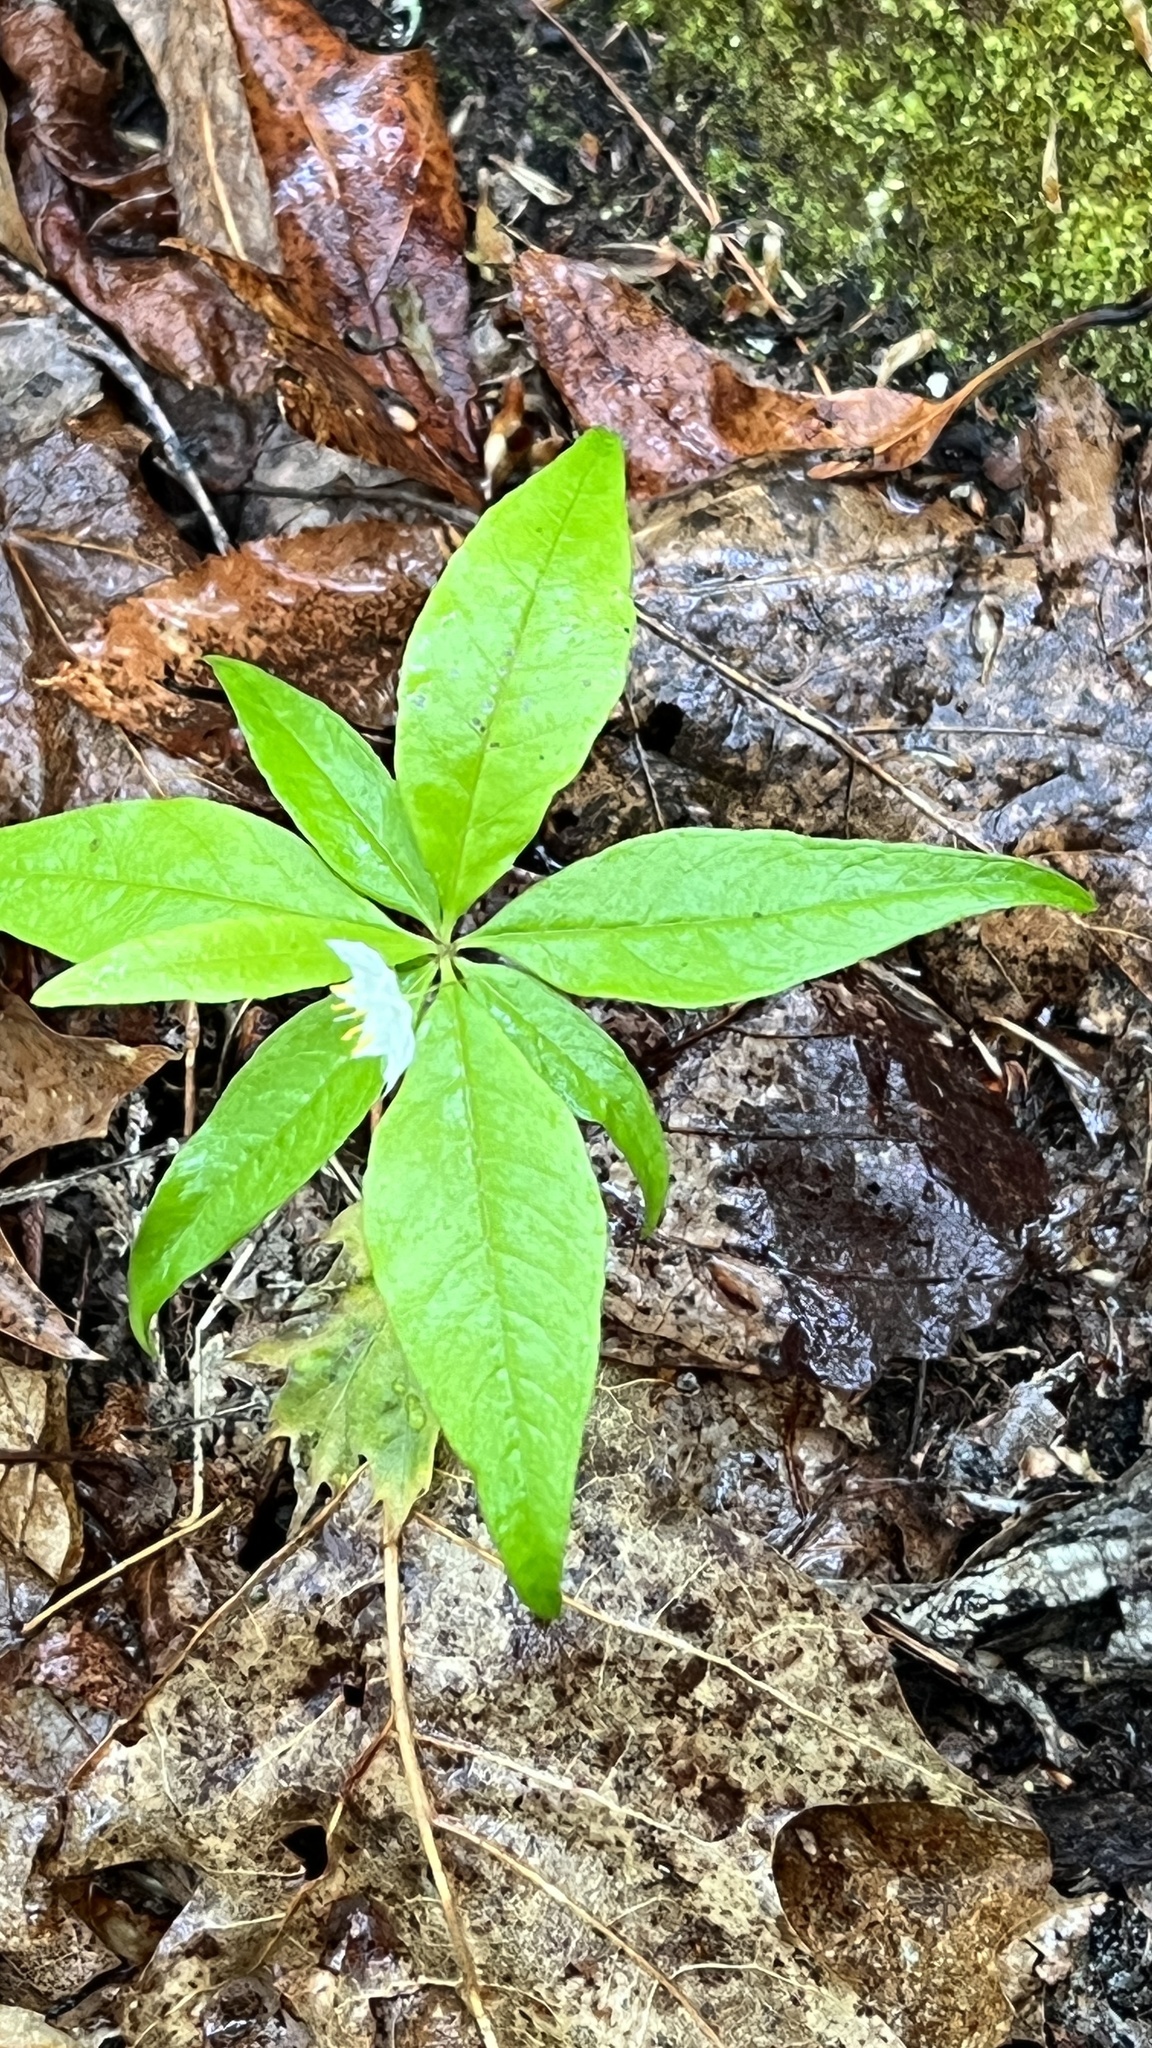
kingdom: Plantae
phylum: Tracheophyta
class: Magnoliopsida
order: Ericales
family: Primulaceae
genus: Lysimachia
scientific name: Lysimachia borealis
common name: American starflower
